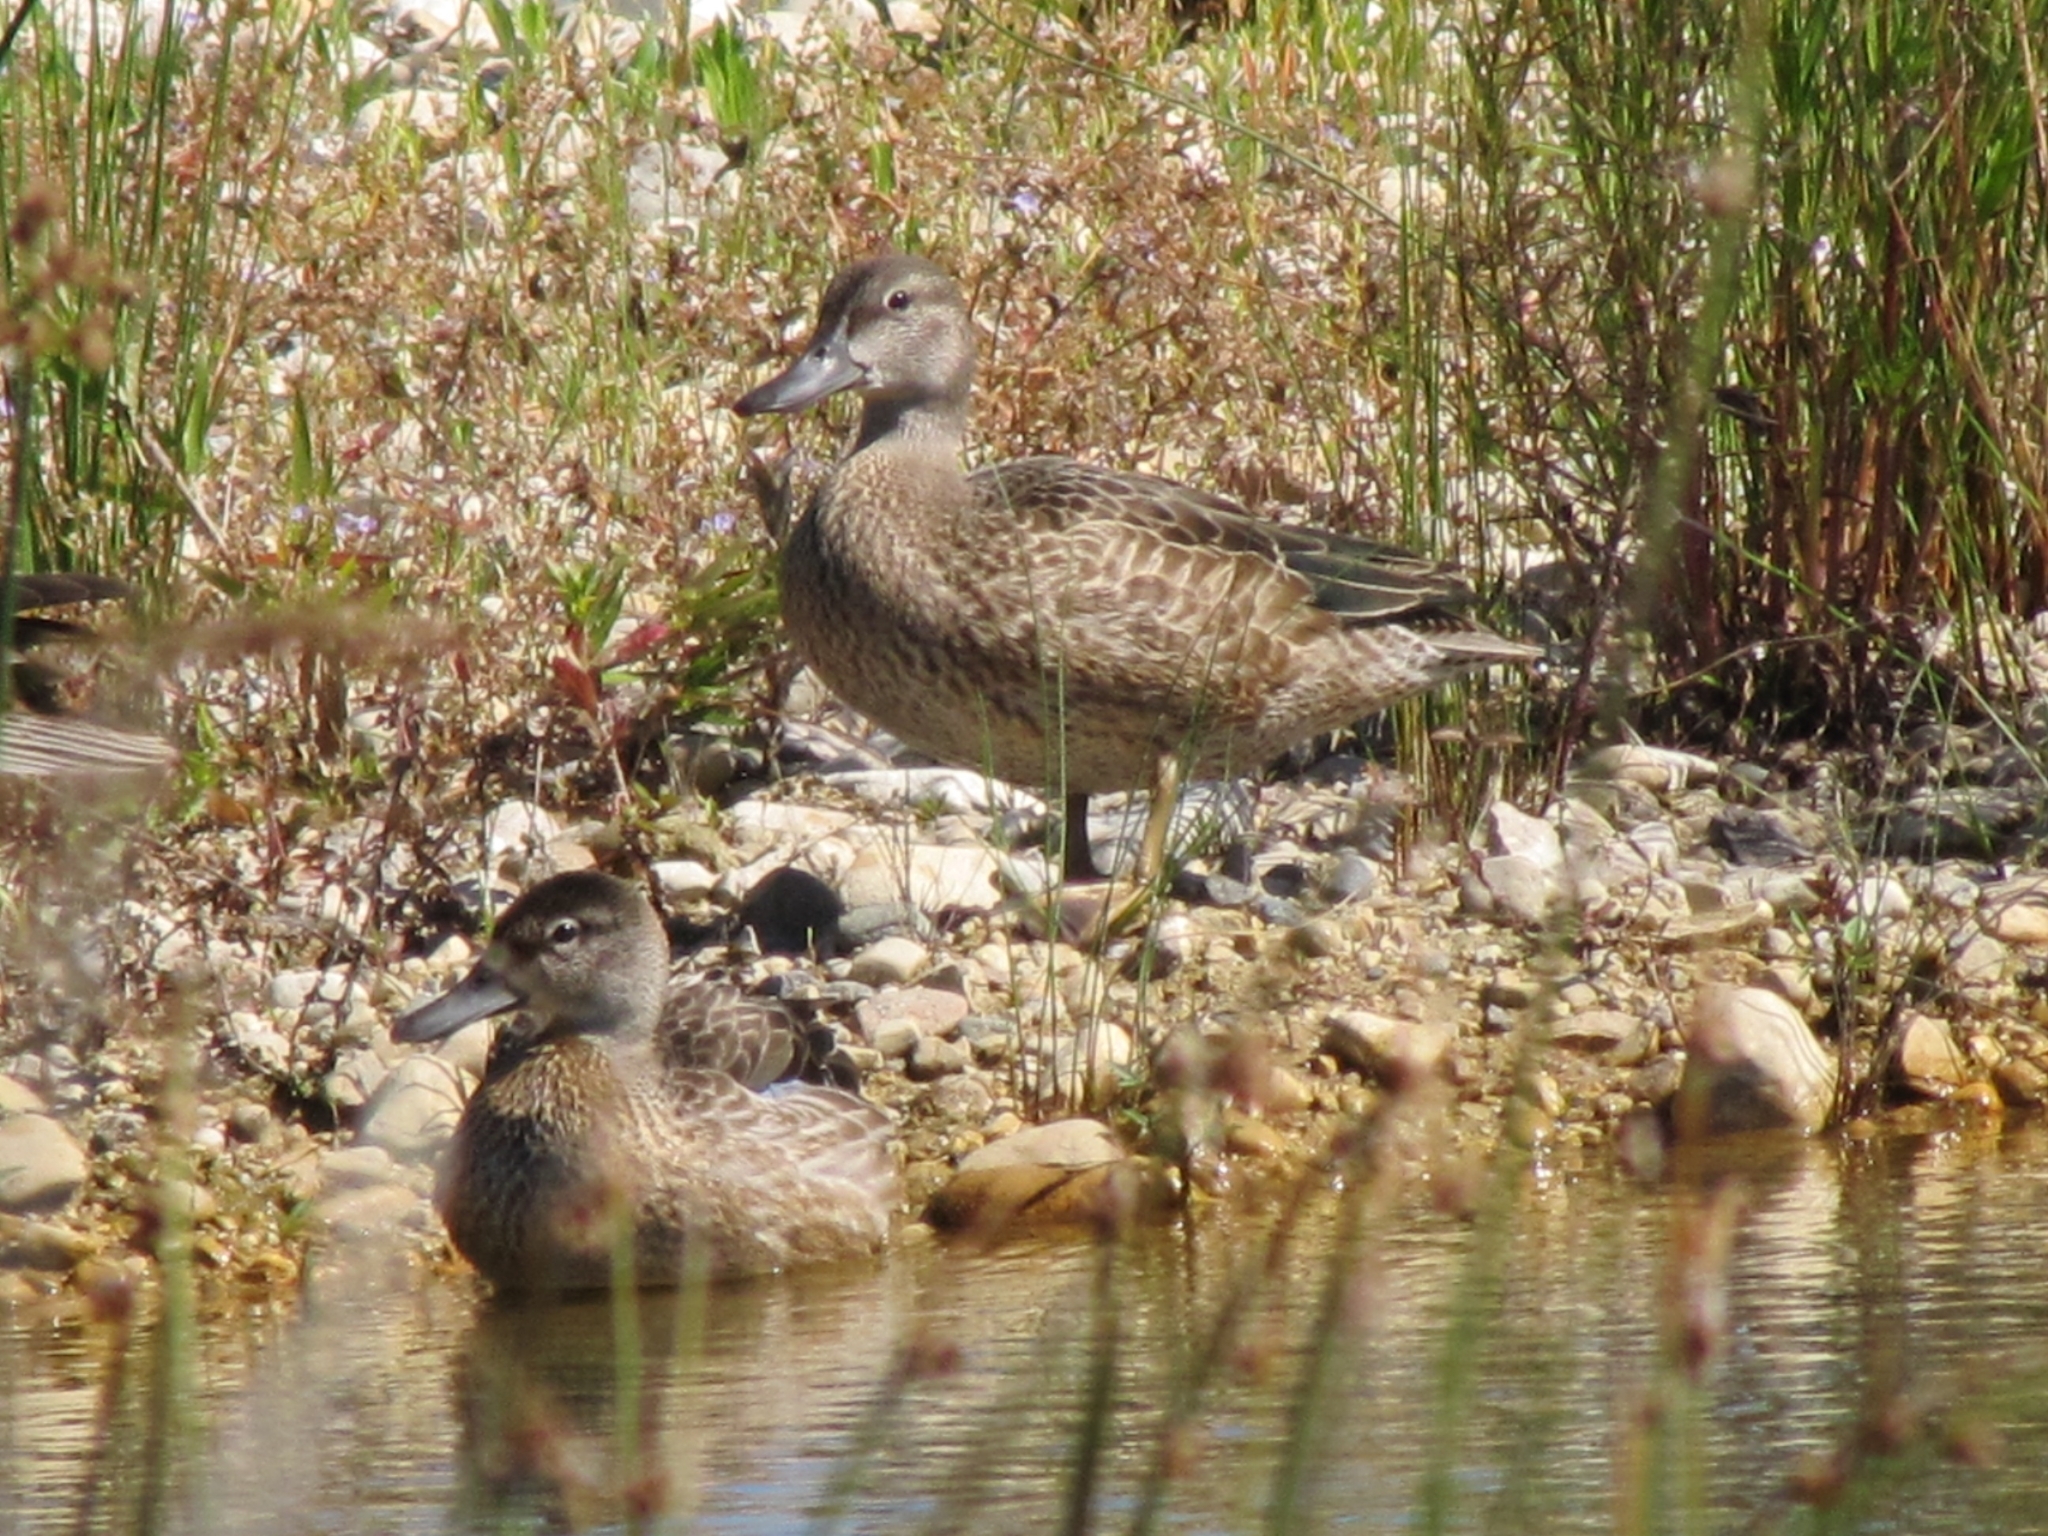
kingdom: Animalia
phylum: Chordata
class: Aves
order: Anseriformes
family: Anatidae
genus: Spatula
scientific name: Spatula discors
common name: Blue-winged teal
